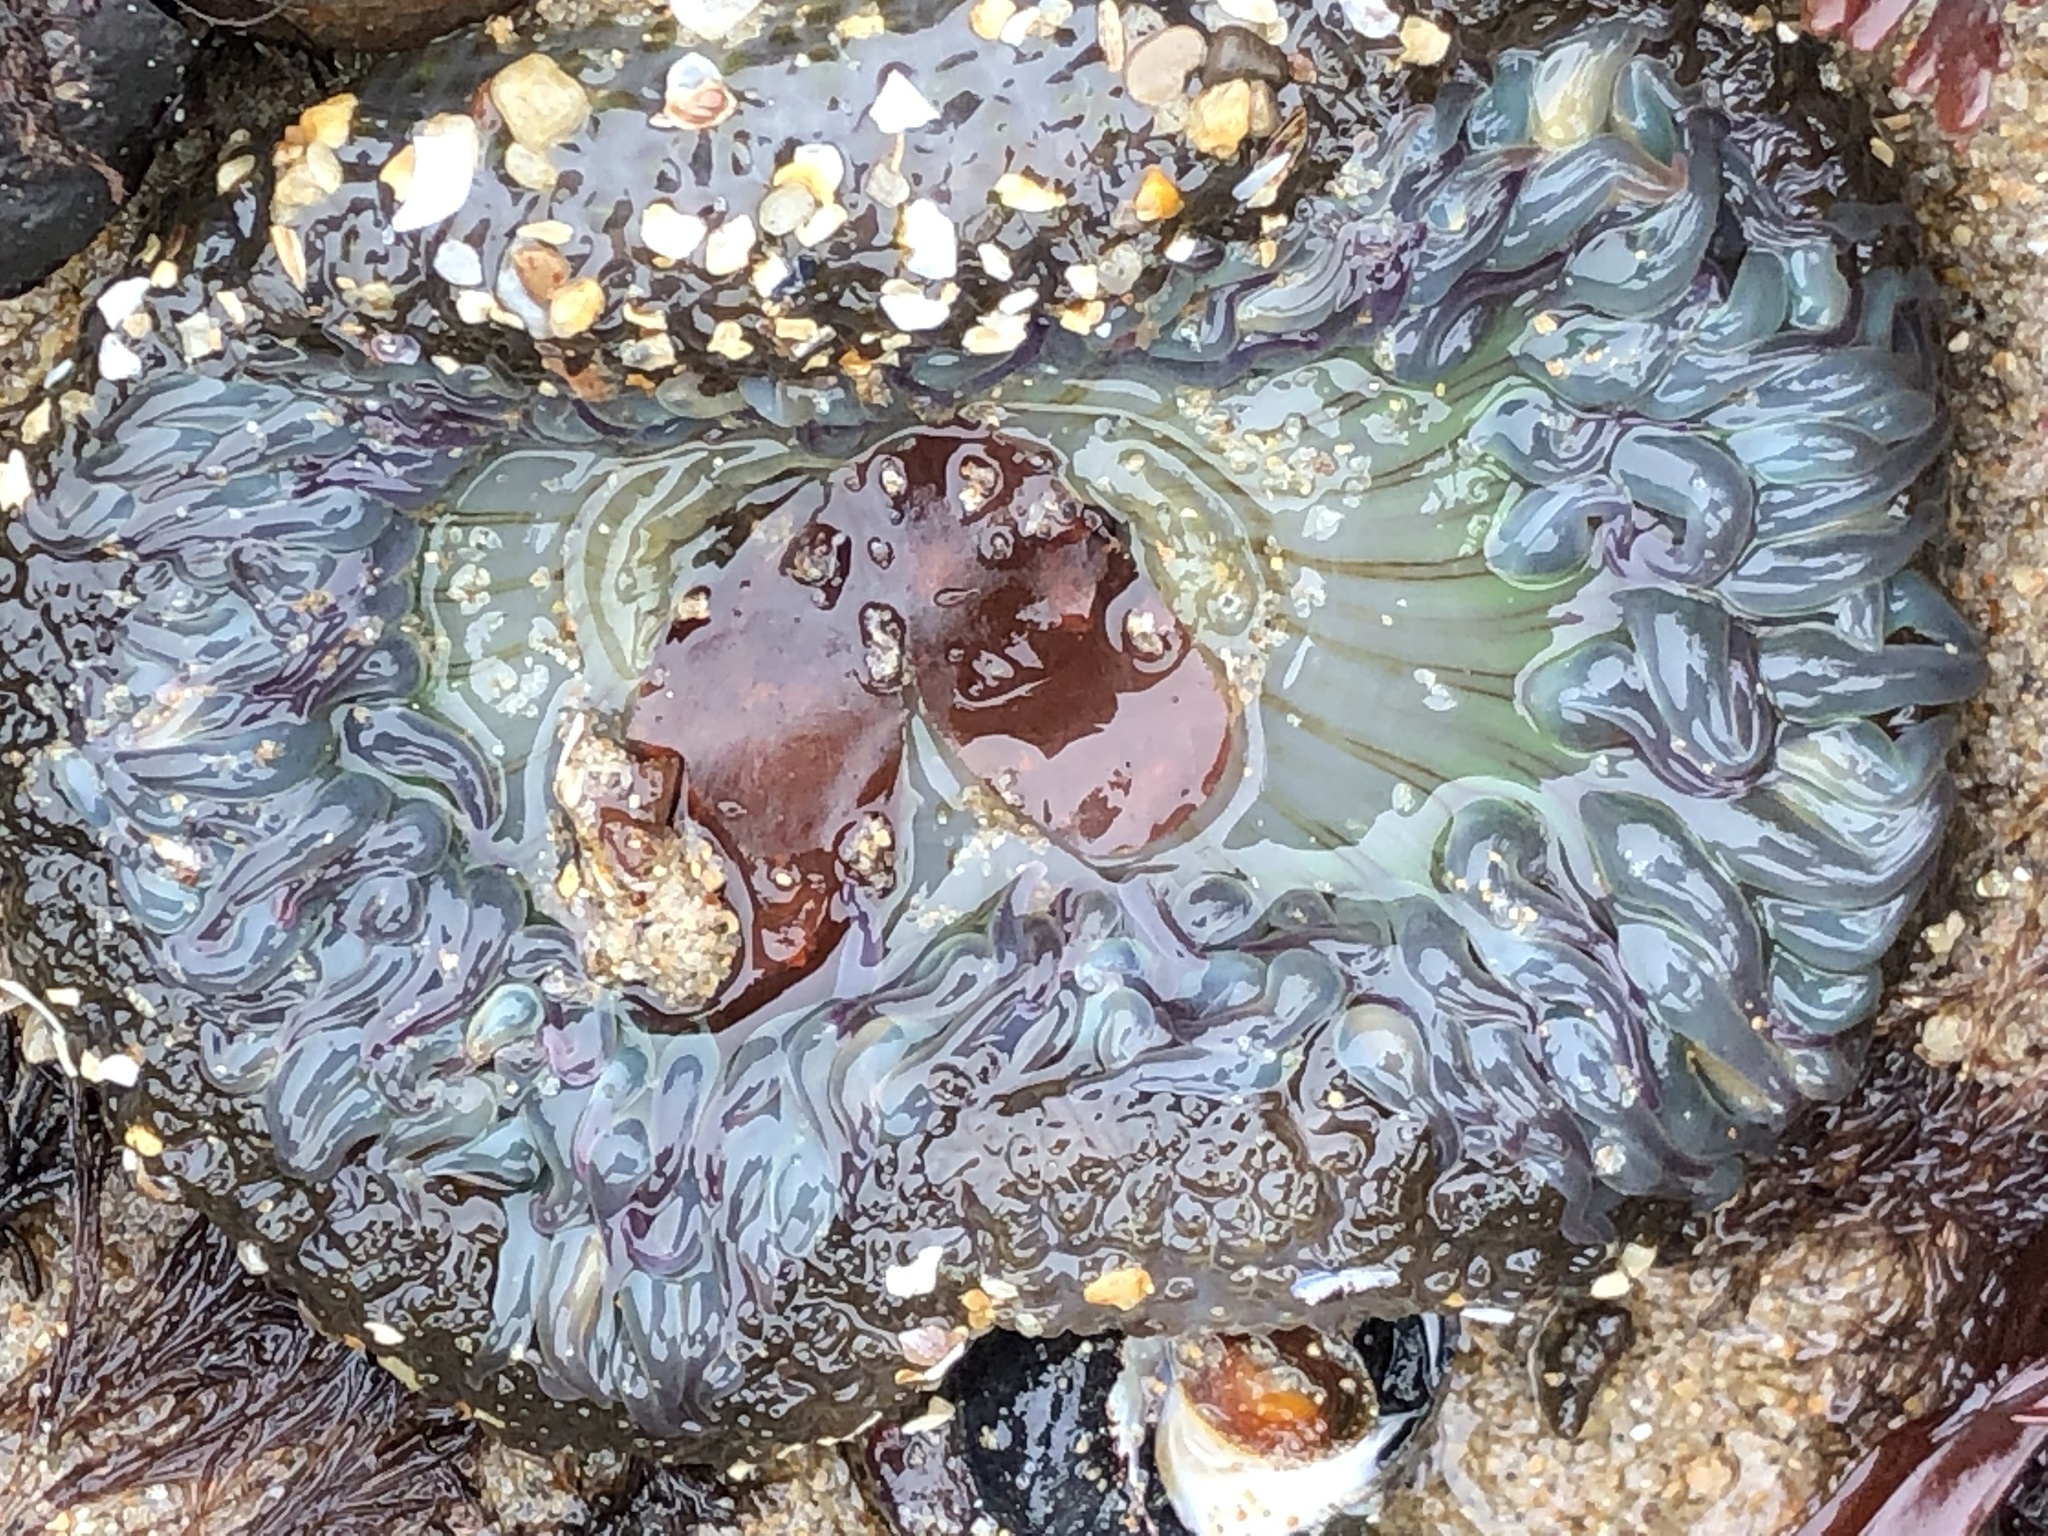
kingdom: Animalia
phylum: Cnidaria
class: Anthozoa
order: Actiniaria
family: Actiniidae
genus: Anthopleura
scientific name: Anthopleura sola
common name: Sun anemone
